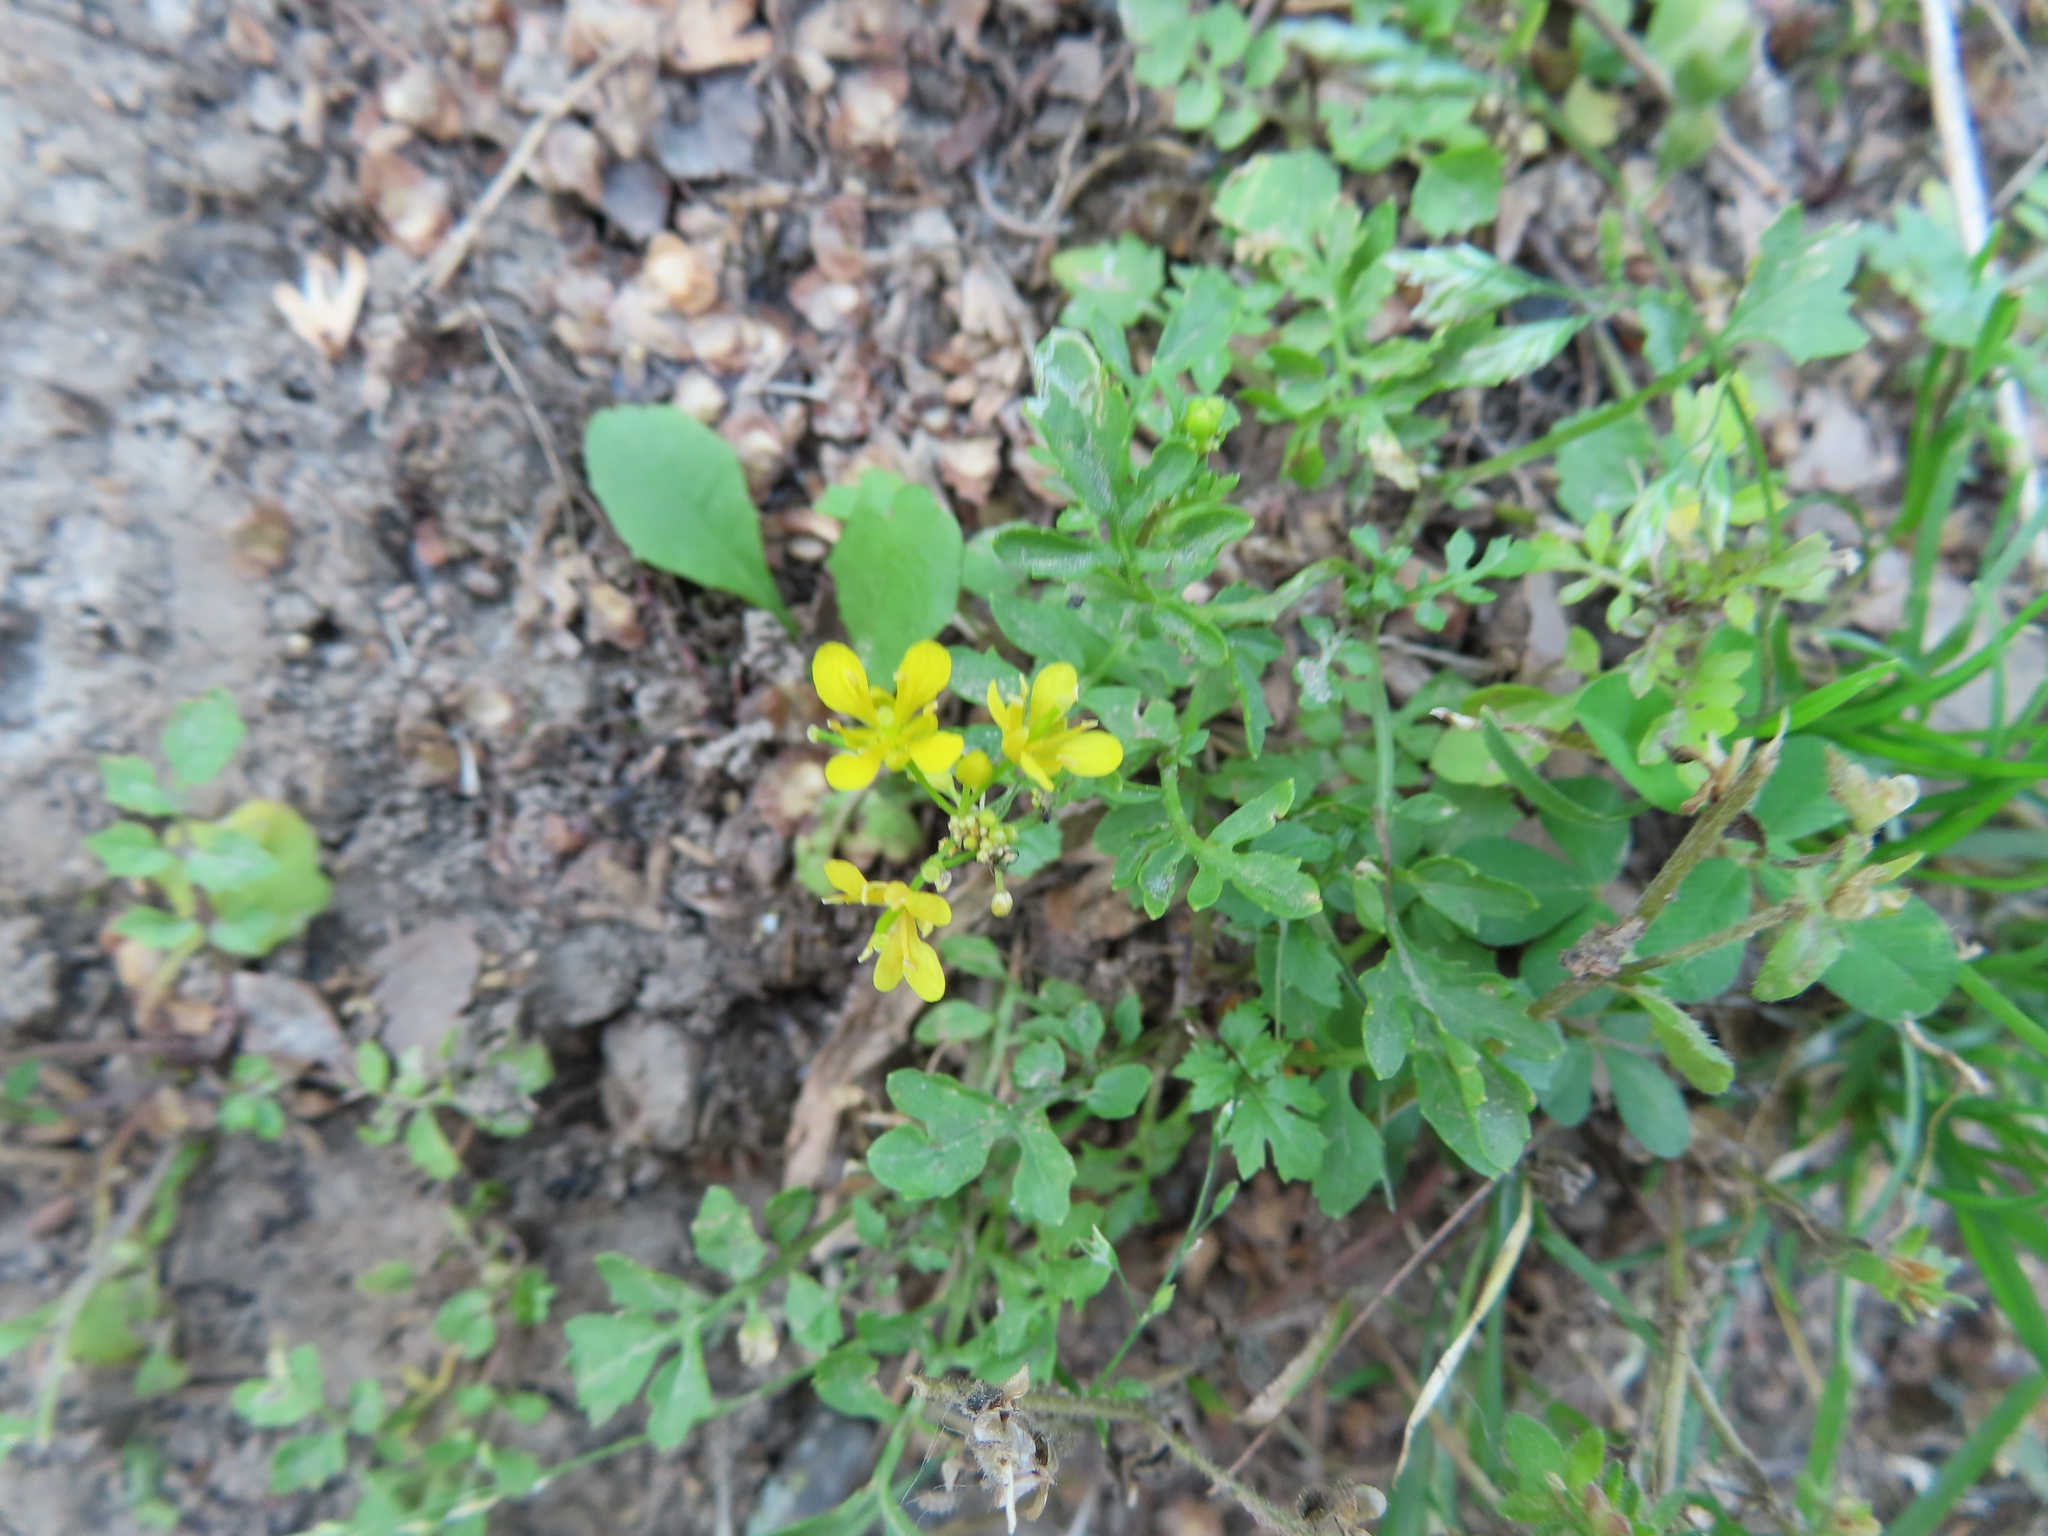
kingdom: Plantae
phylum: Tracheophyta
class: Magnoliopsida
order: Brassicales
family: Brassicaceae
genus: Rorippa
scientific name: Rorippa sylvestris
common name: Creeping yellowcress
